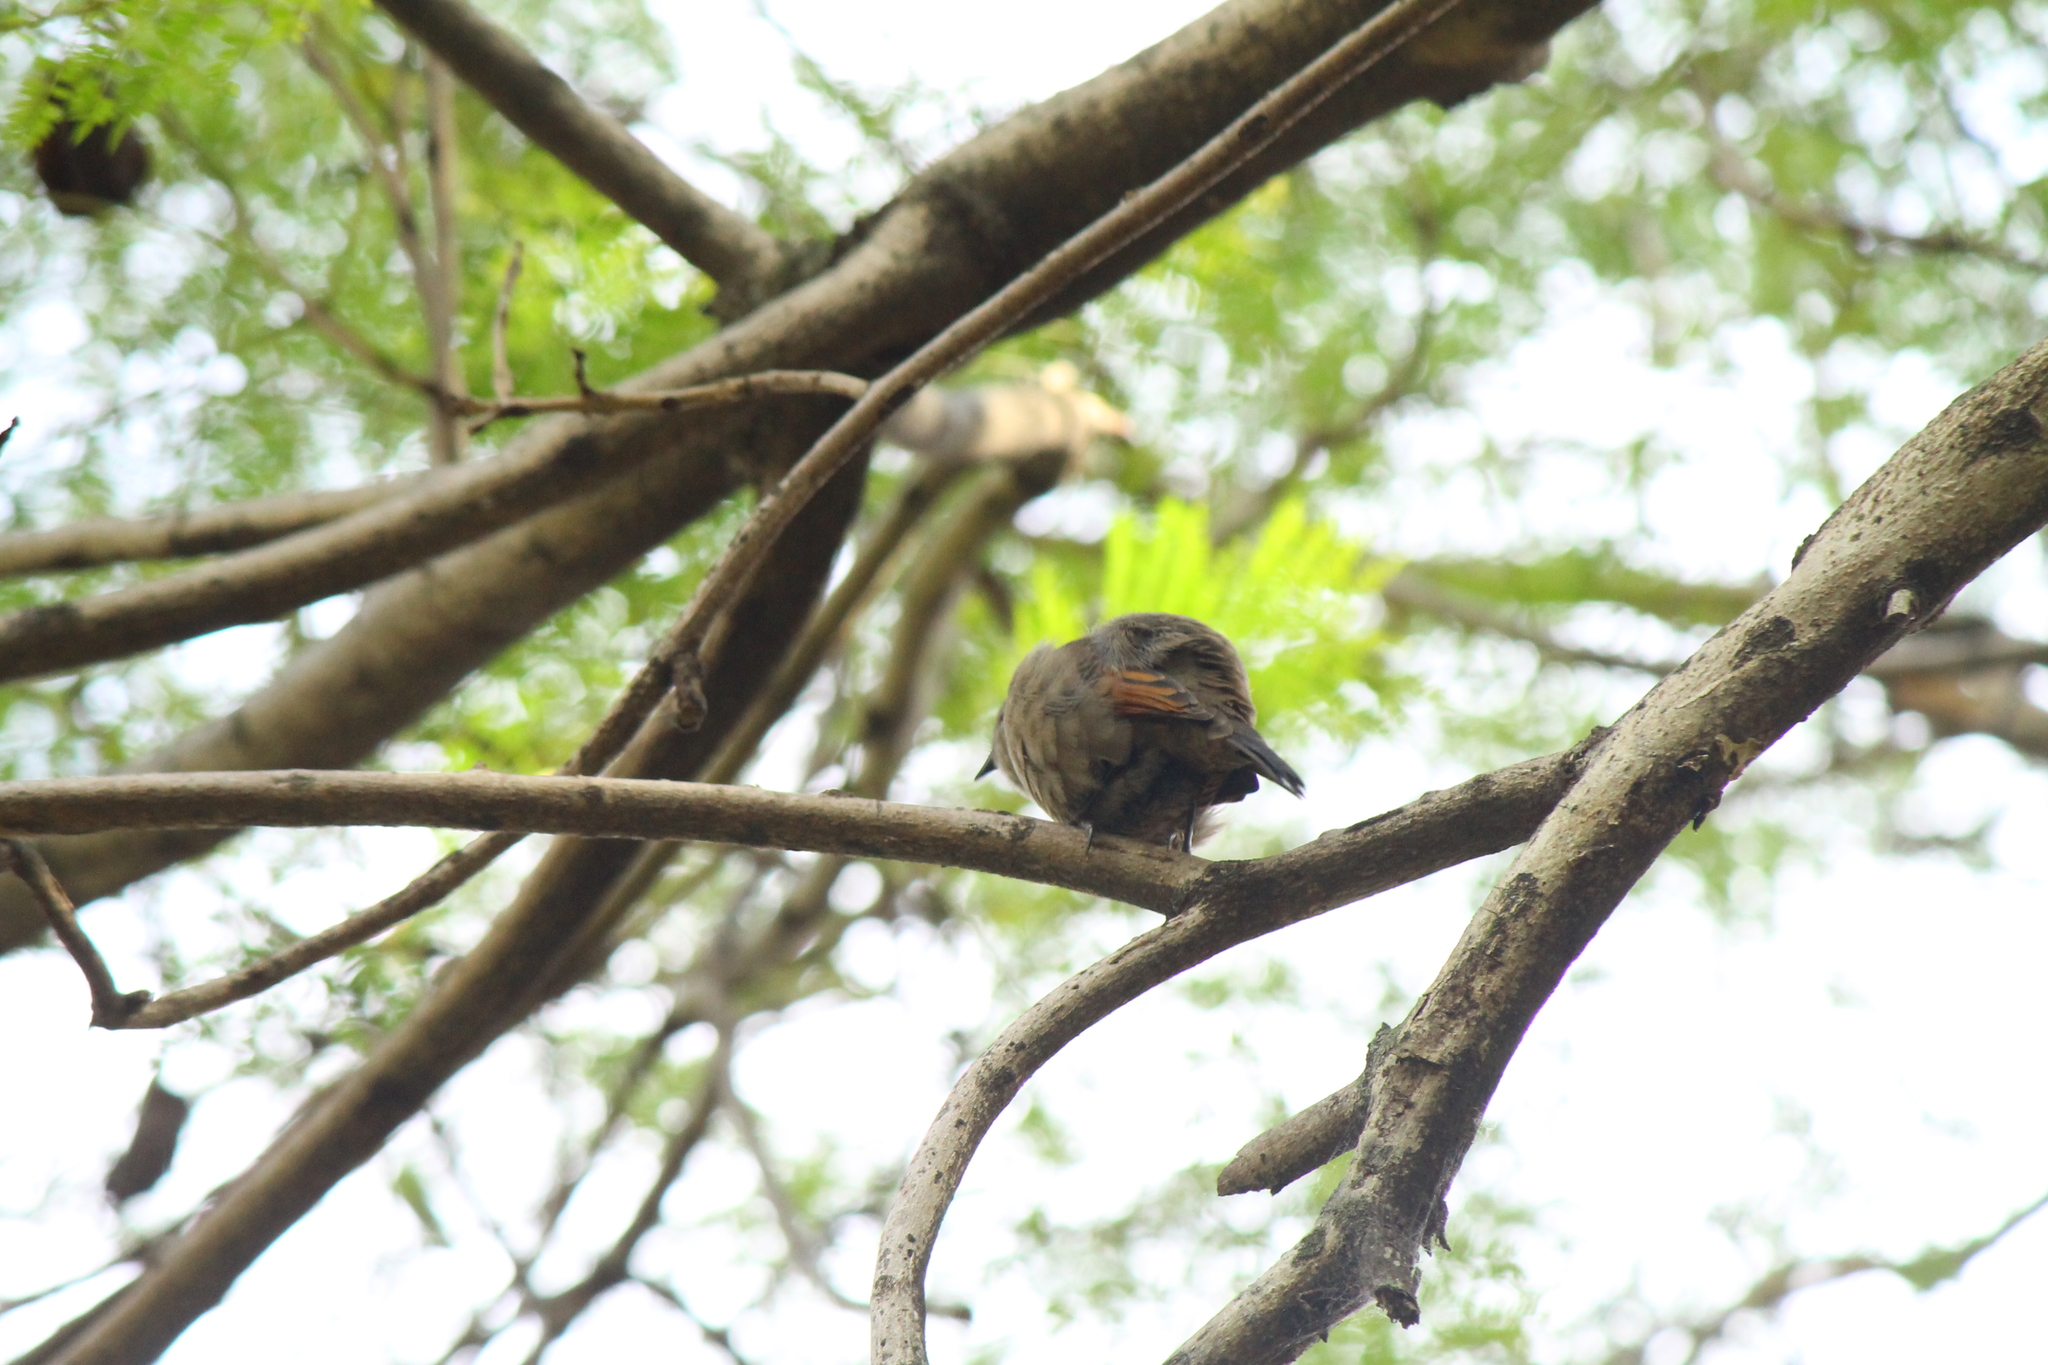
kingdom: Animalia
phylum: Chordata
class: Aves
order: Passeriformes
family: Icteridae
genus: Agelaioides
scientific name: Agelaioides badius
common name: Baywing
